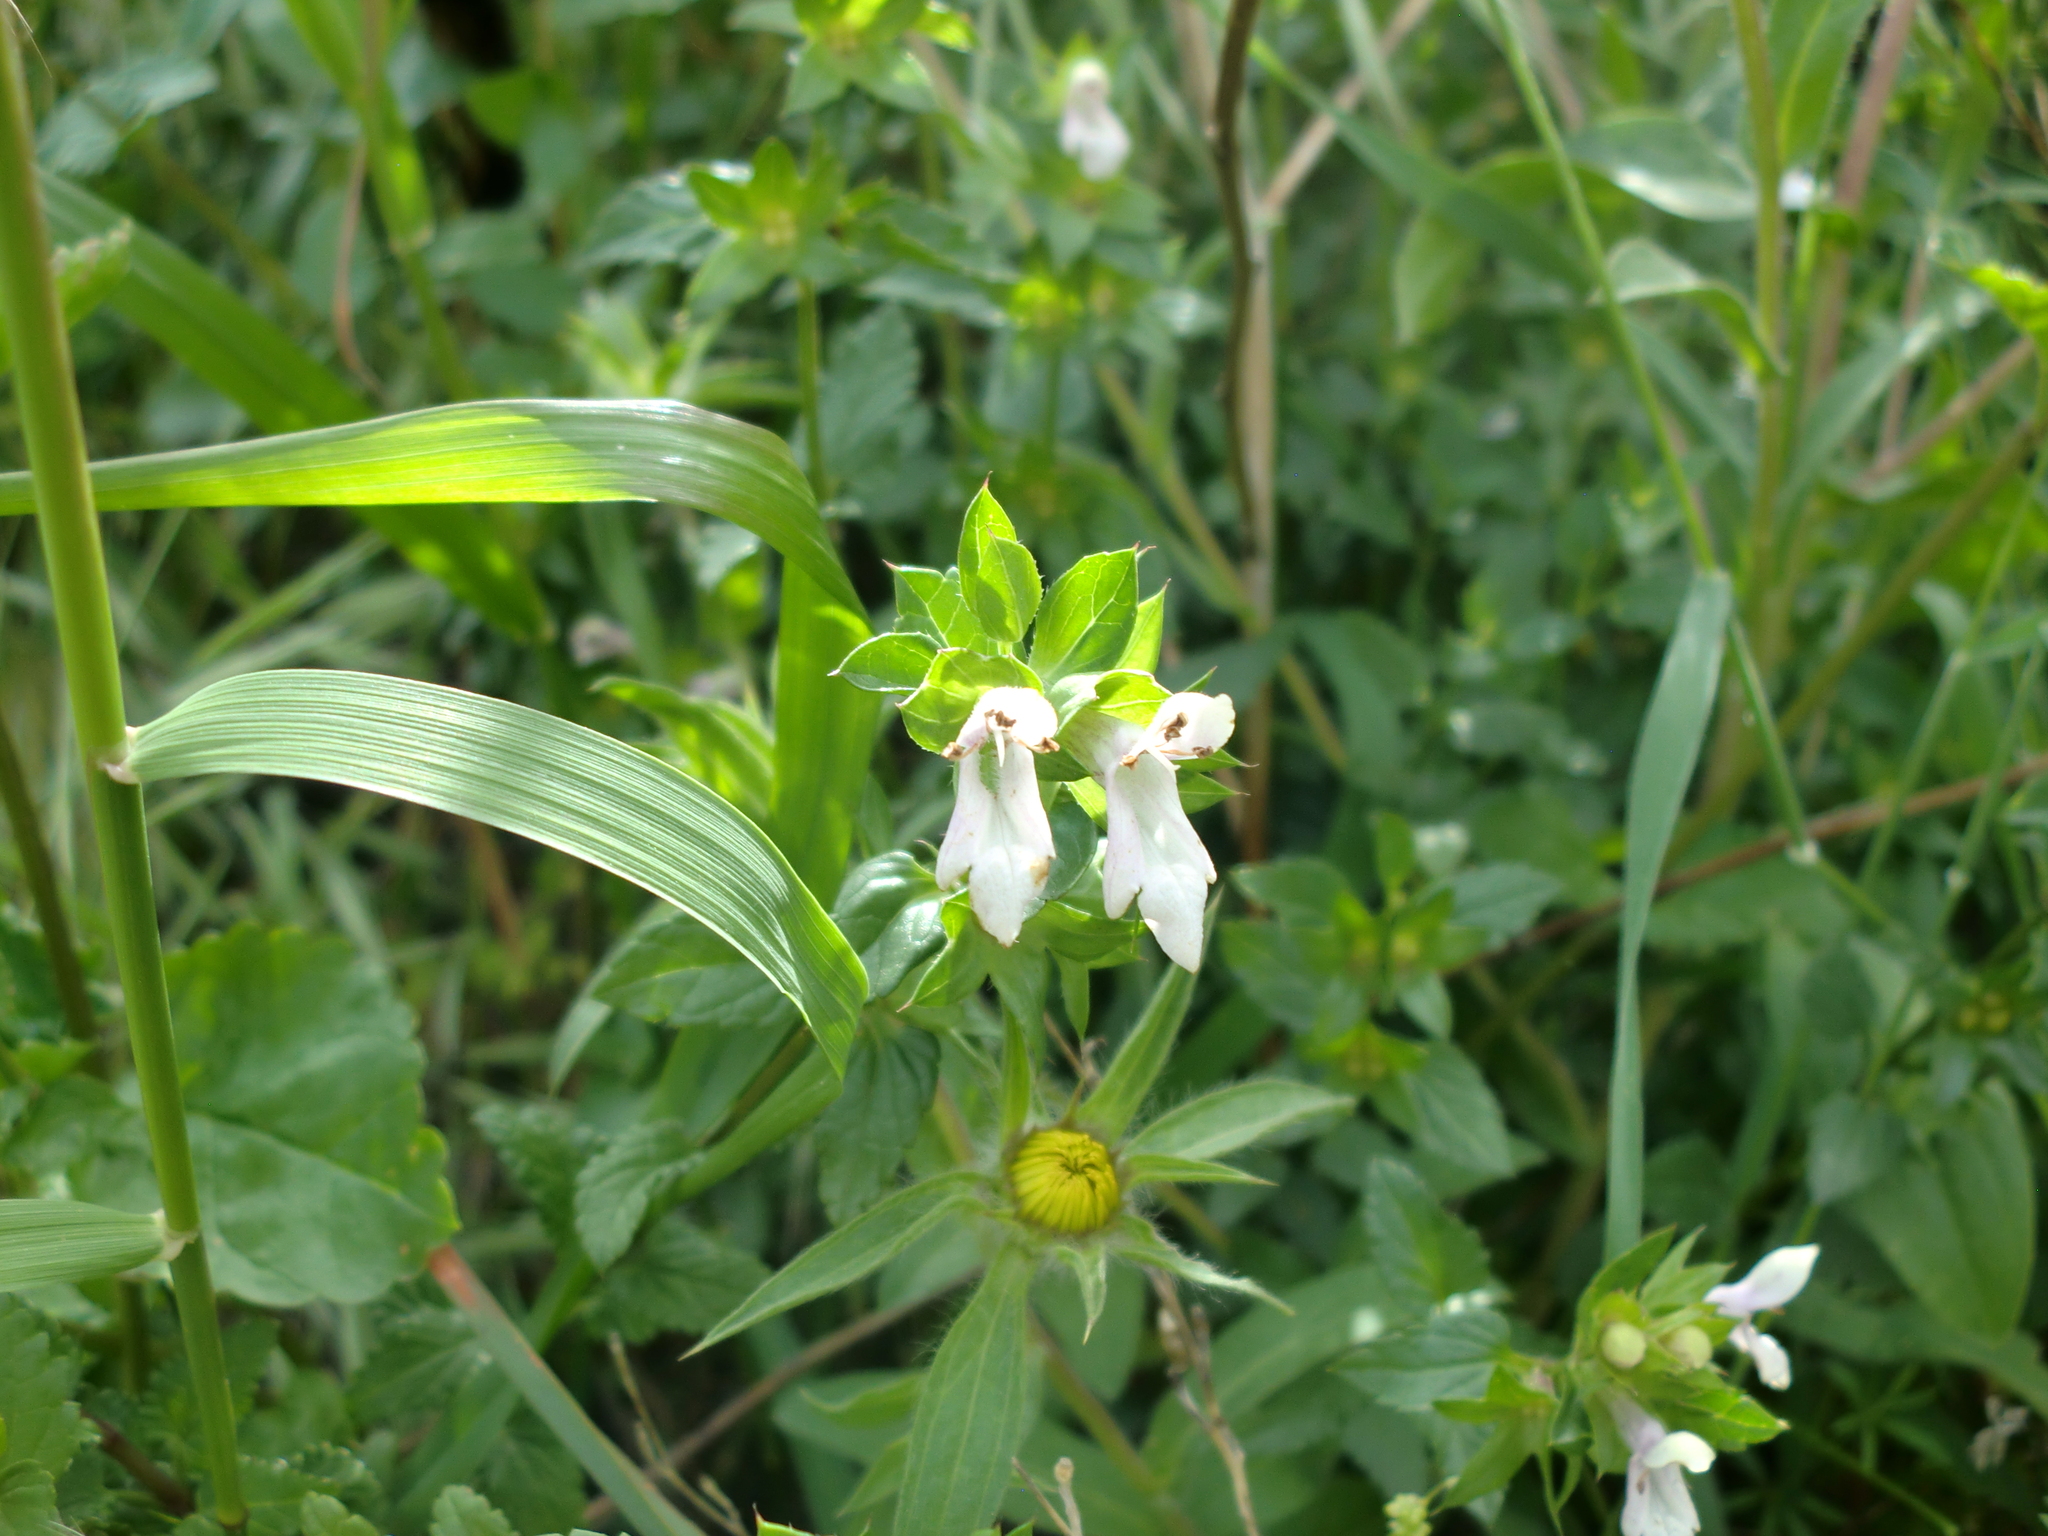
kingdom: Plantae
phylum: Tracheophyta
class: Magnoliopsida
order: Lamiales
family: Lamiaceae
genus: Prasium
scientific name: Prasium majus
